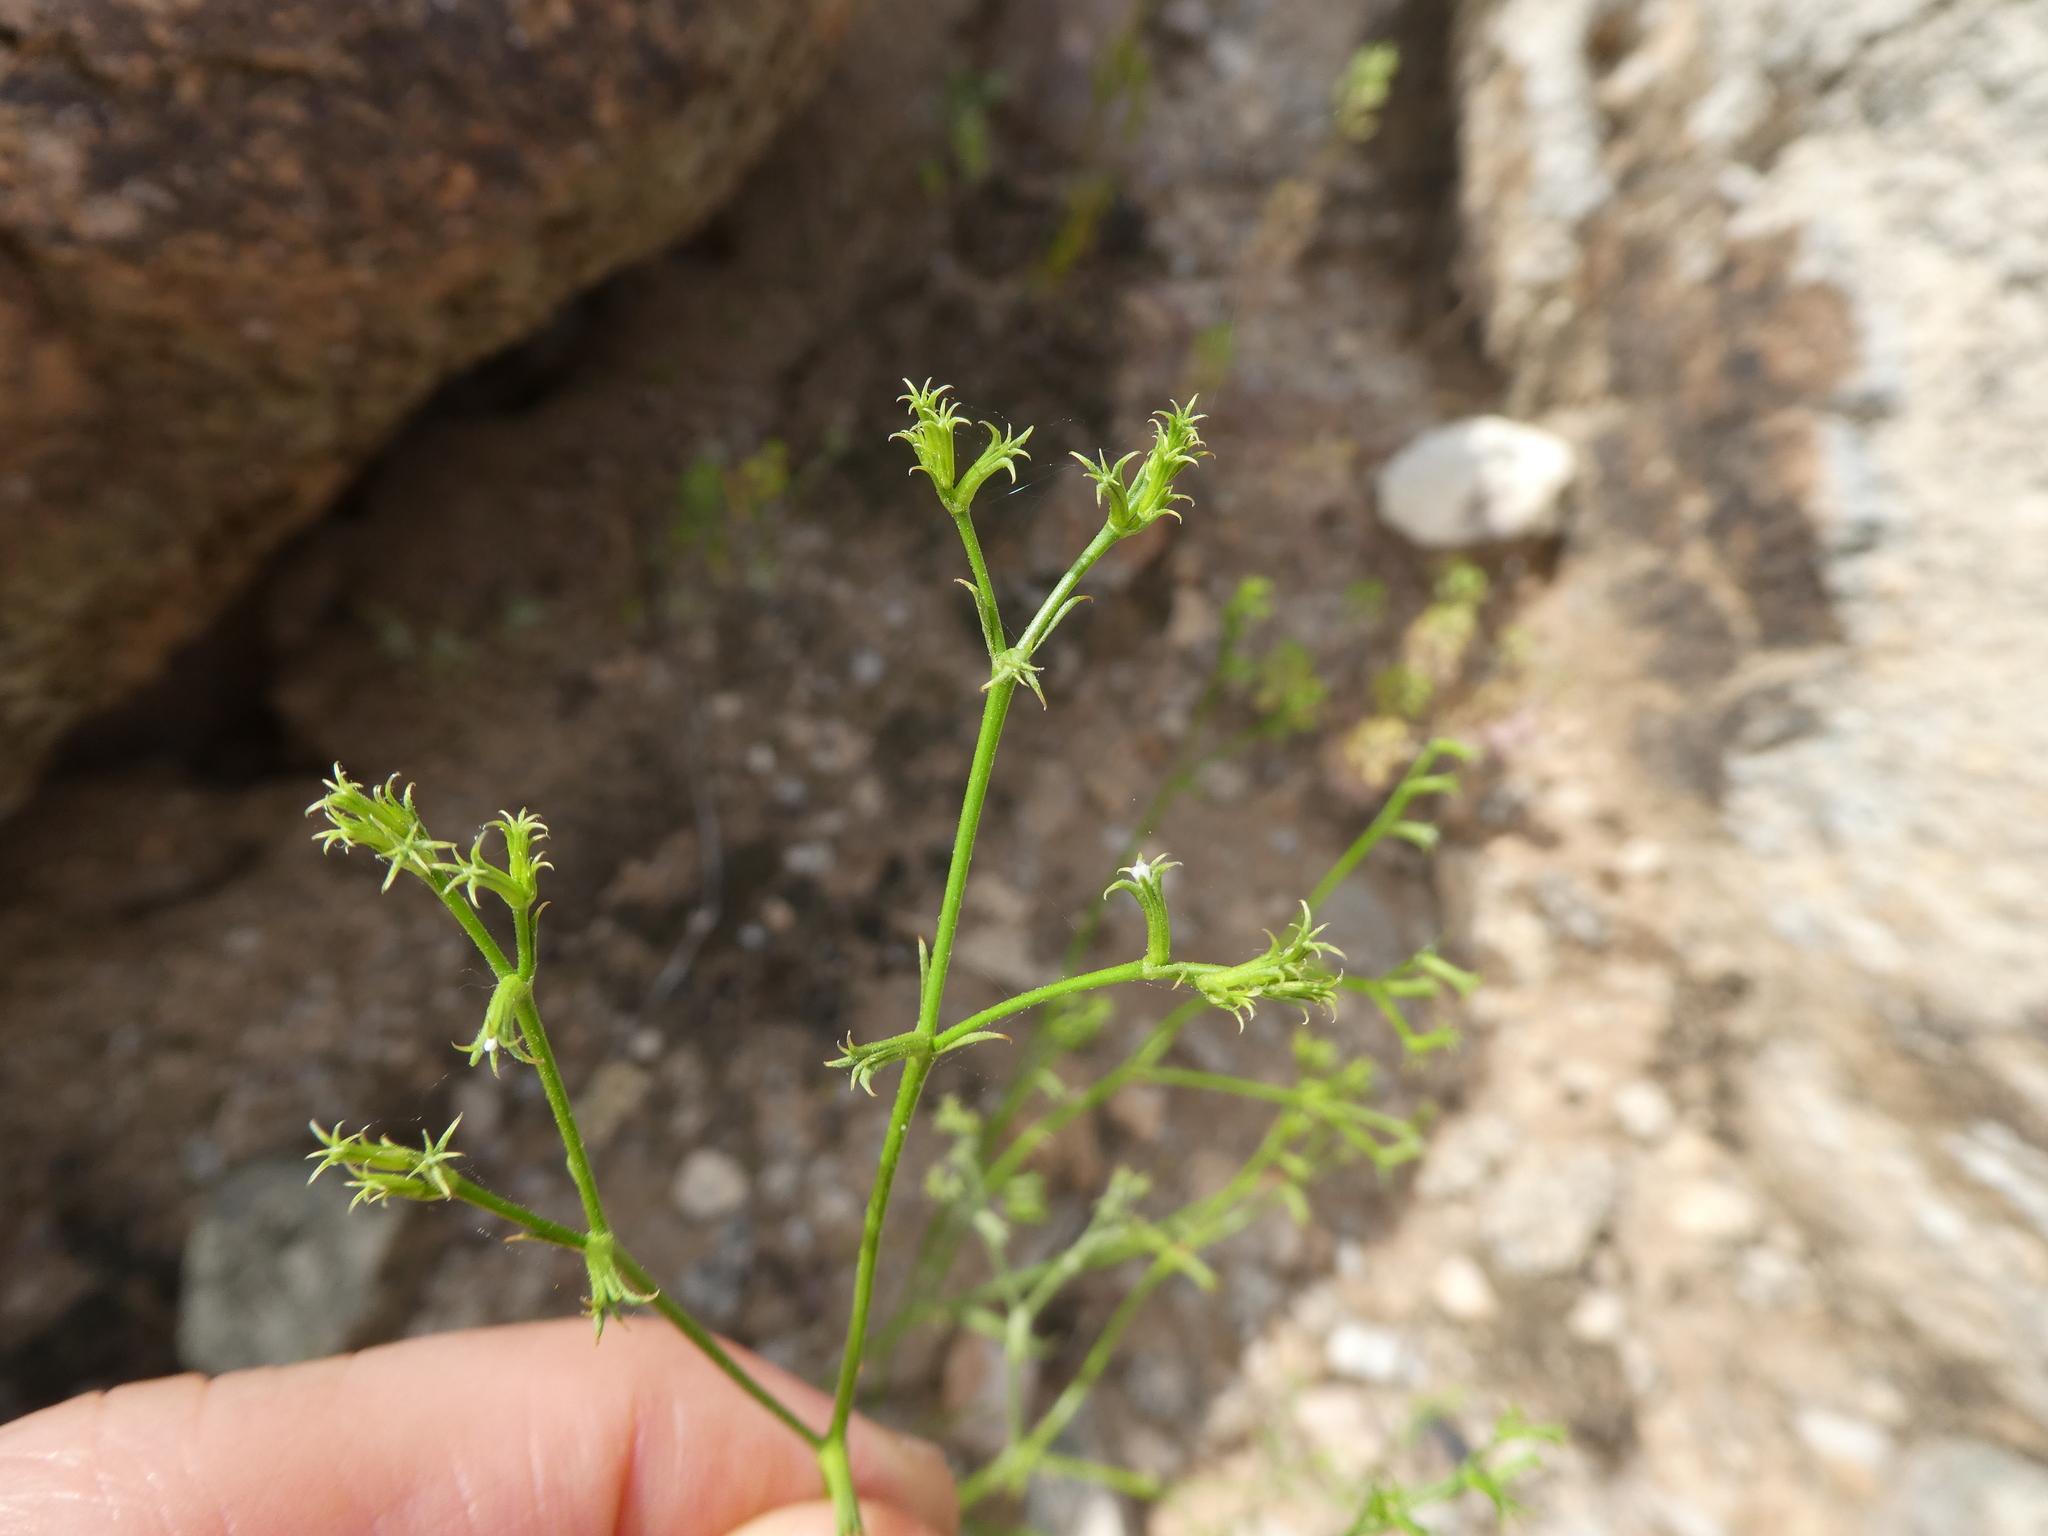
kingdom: Plantae
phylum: Tracheophyta
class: Magnoliopsida
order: Caryophyllales
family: Polygonaceae
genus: Chorizanthe
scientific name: Chorizanthe brevicornu
